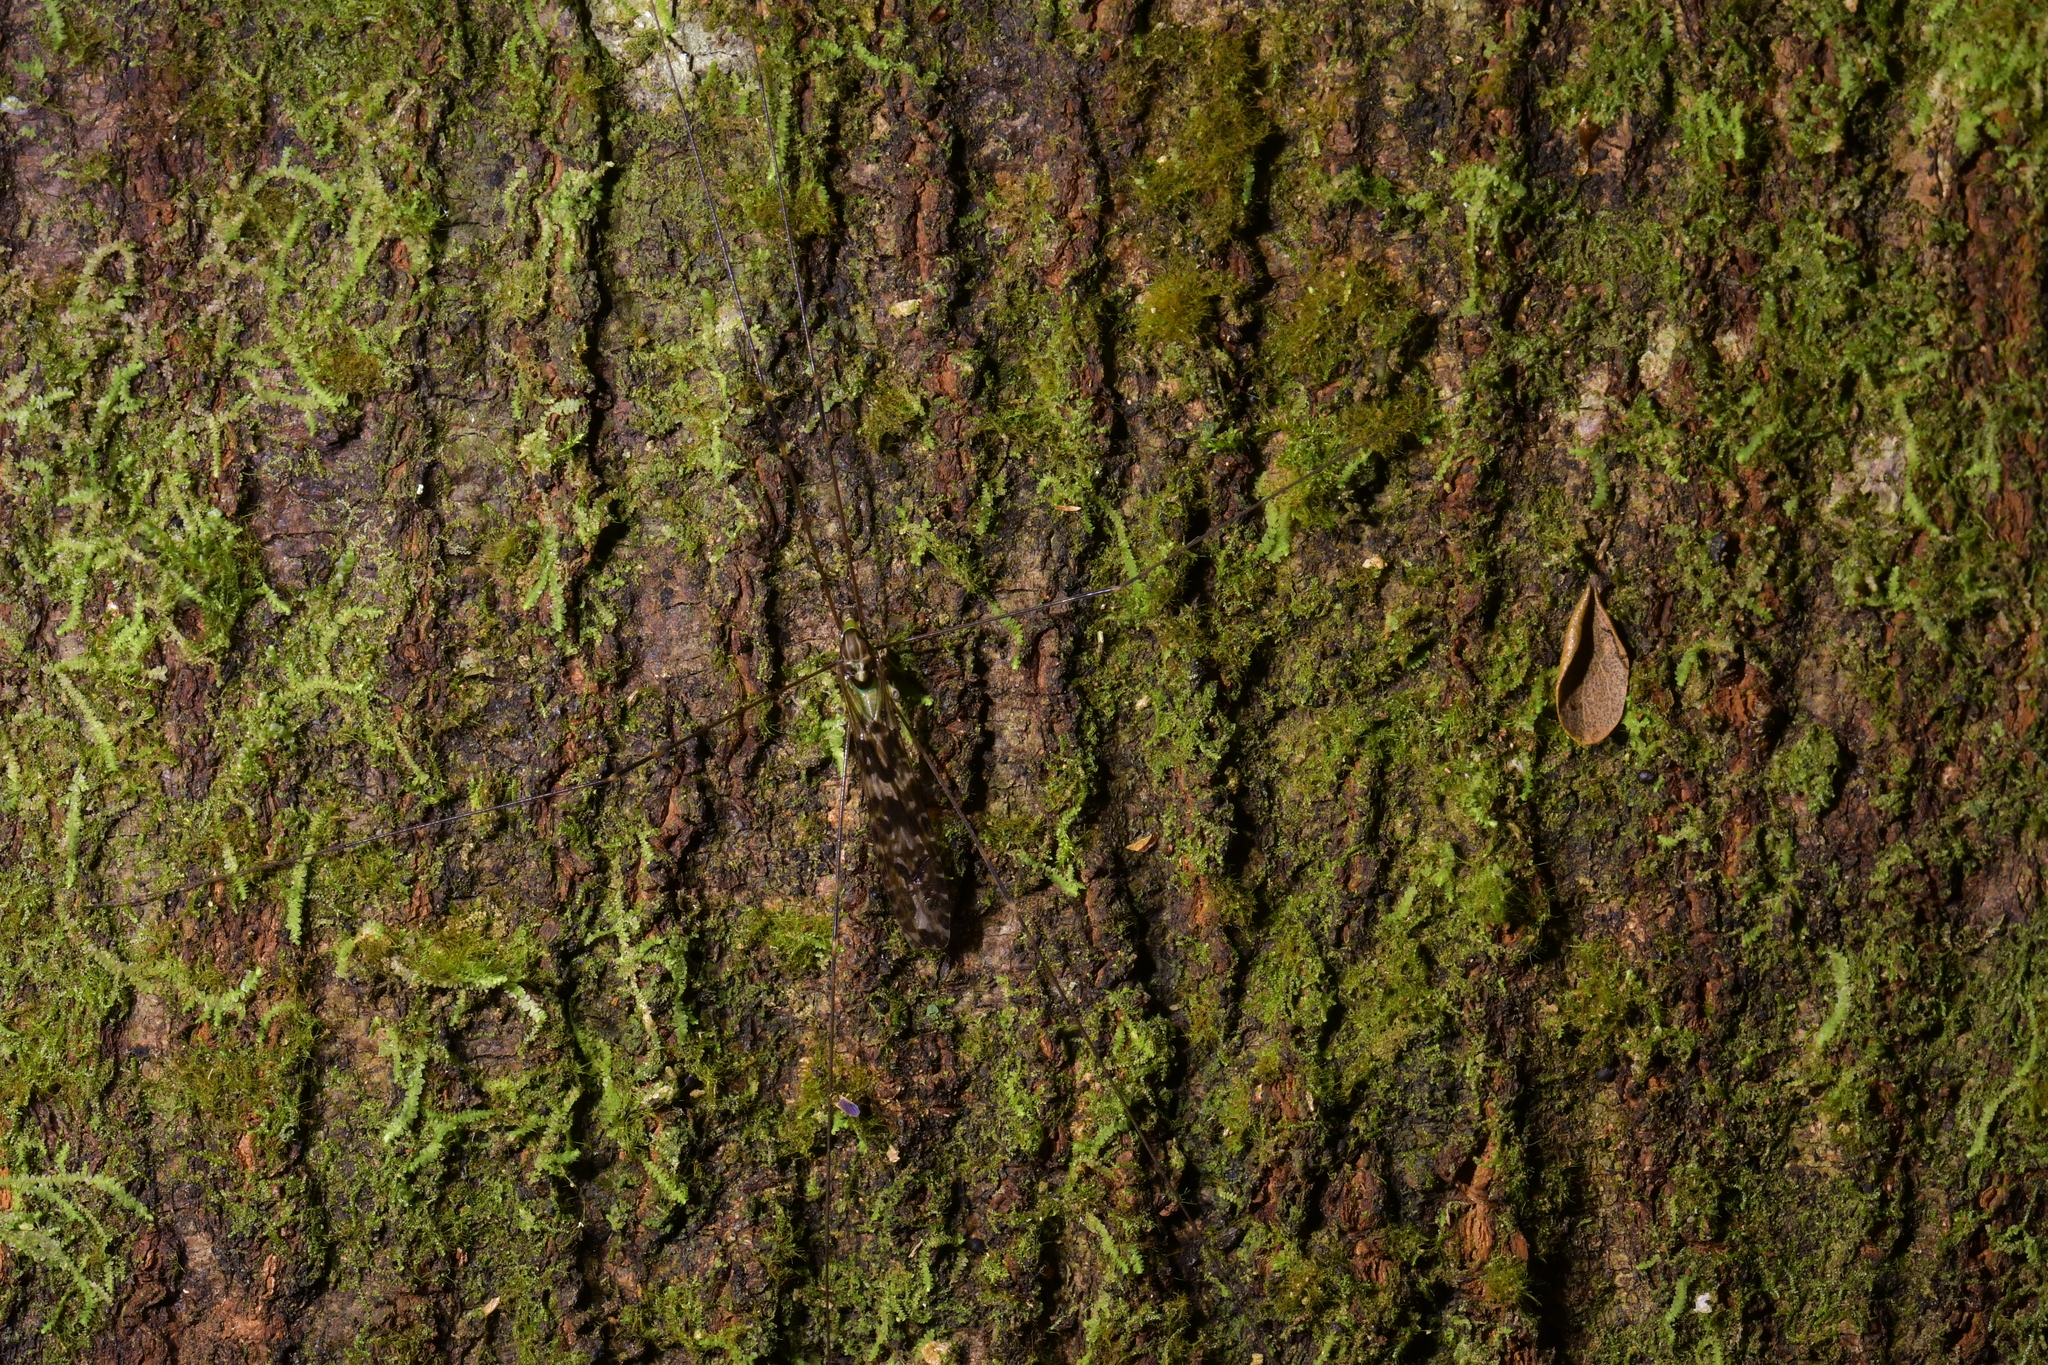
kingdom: Animalia
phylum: Arthropoda
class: Insecta
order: Diptera
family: Limoniidae
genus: Discobola
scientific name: Discobola dohrni
